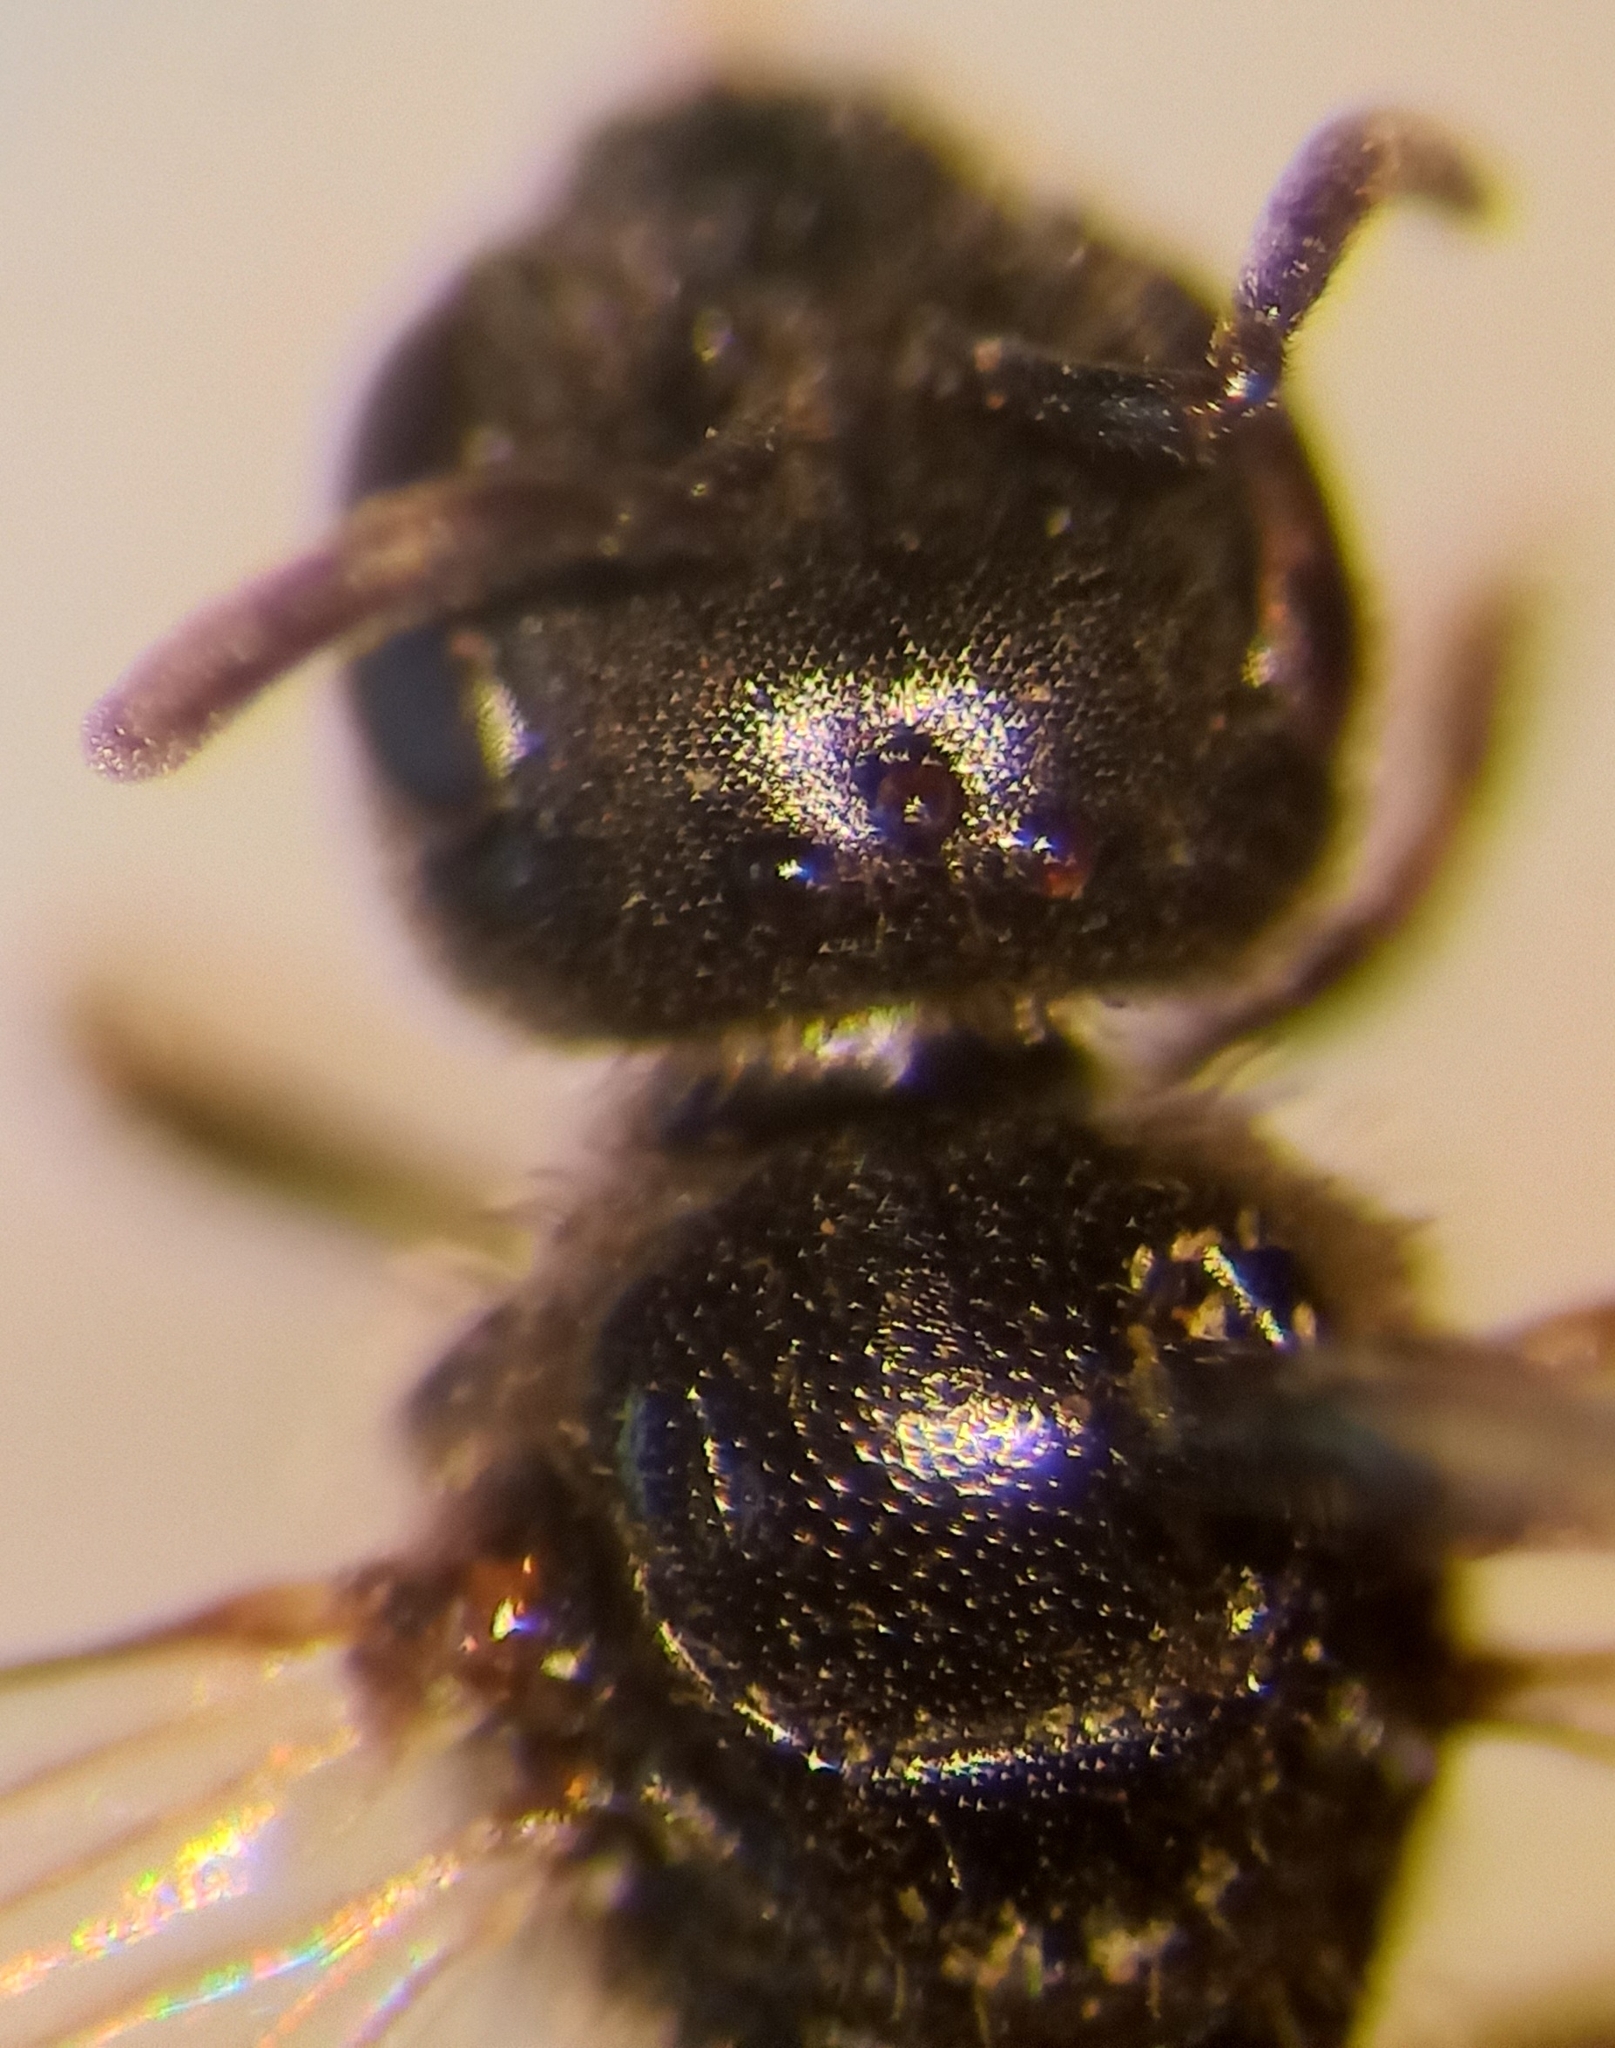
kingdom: Animalia
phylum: Arthropoda
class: Insecta
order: Hymenoptera
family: Halictidae
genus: Lasioglossum
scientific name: Lasioglossum glabriusculum
